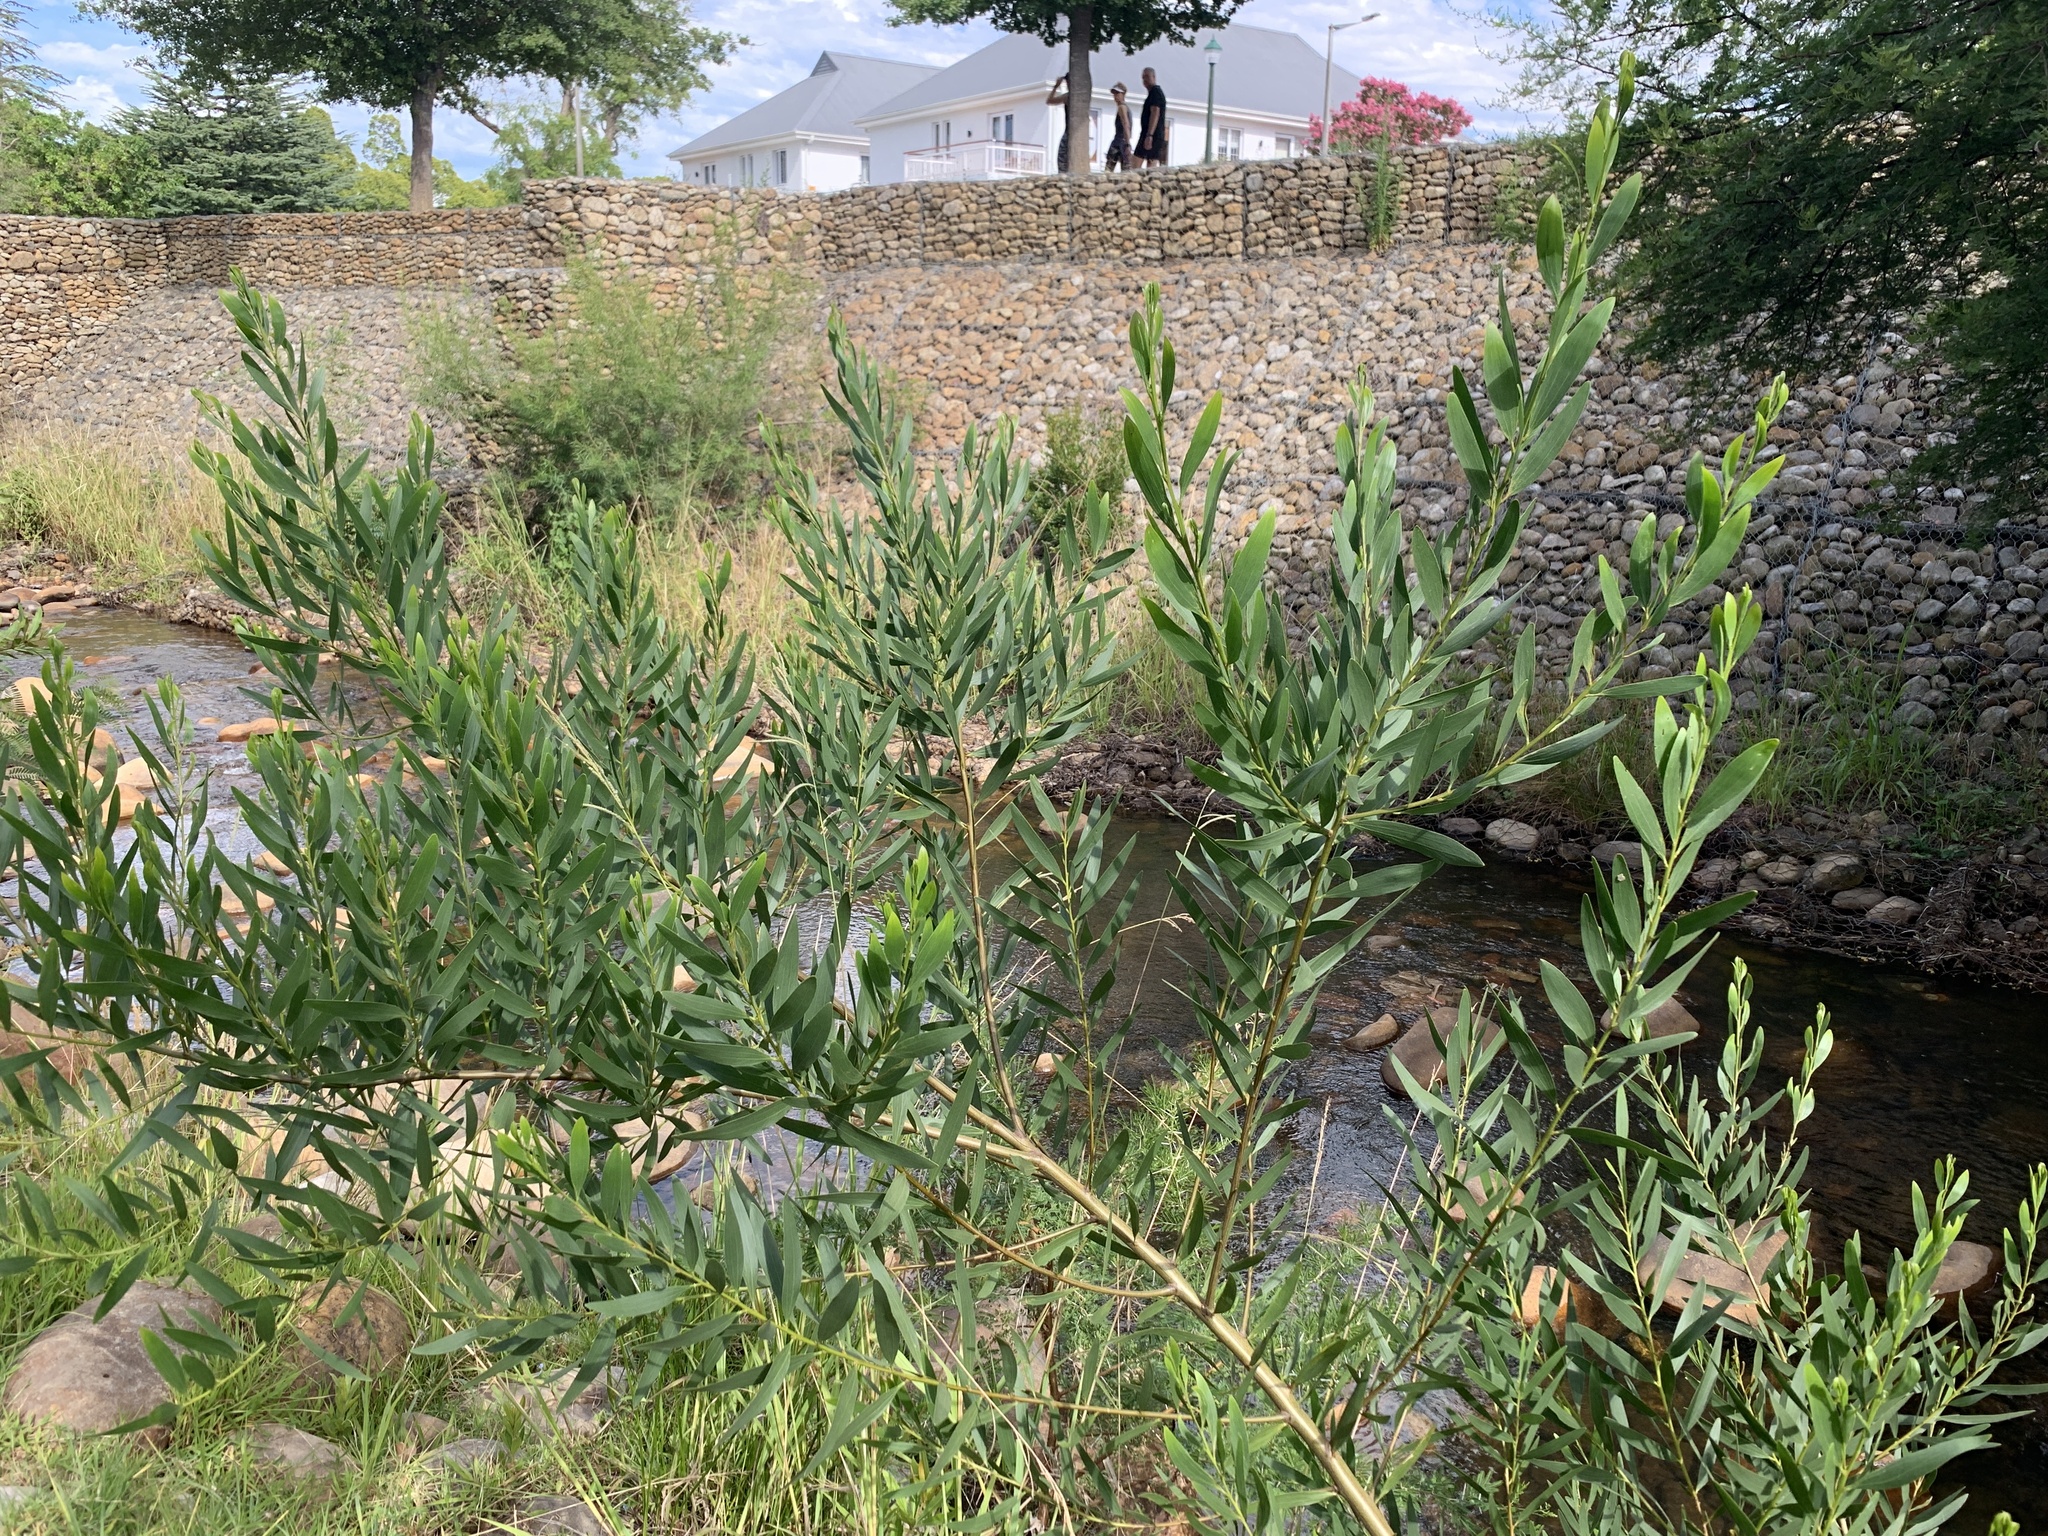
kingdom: Plantae
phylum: Tracheophyta
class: Magnoliopsida
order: Fabales
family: Fabaceae
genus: Acacia
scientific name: Acacia longifolia
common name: Sydney golden wattle
